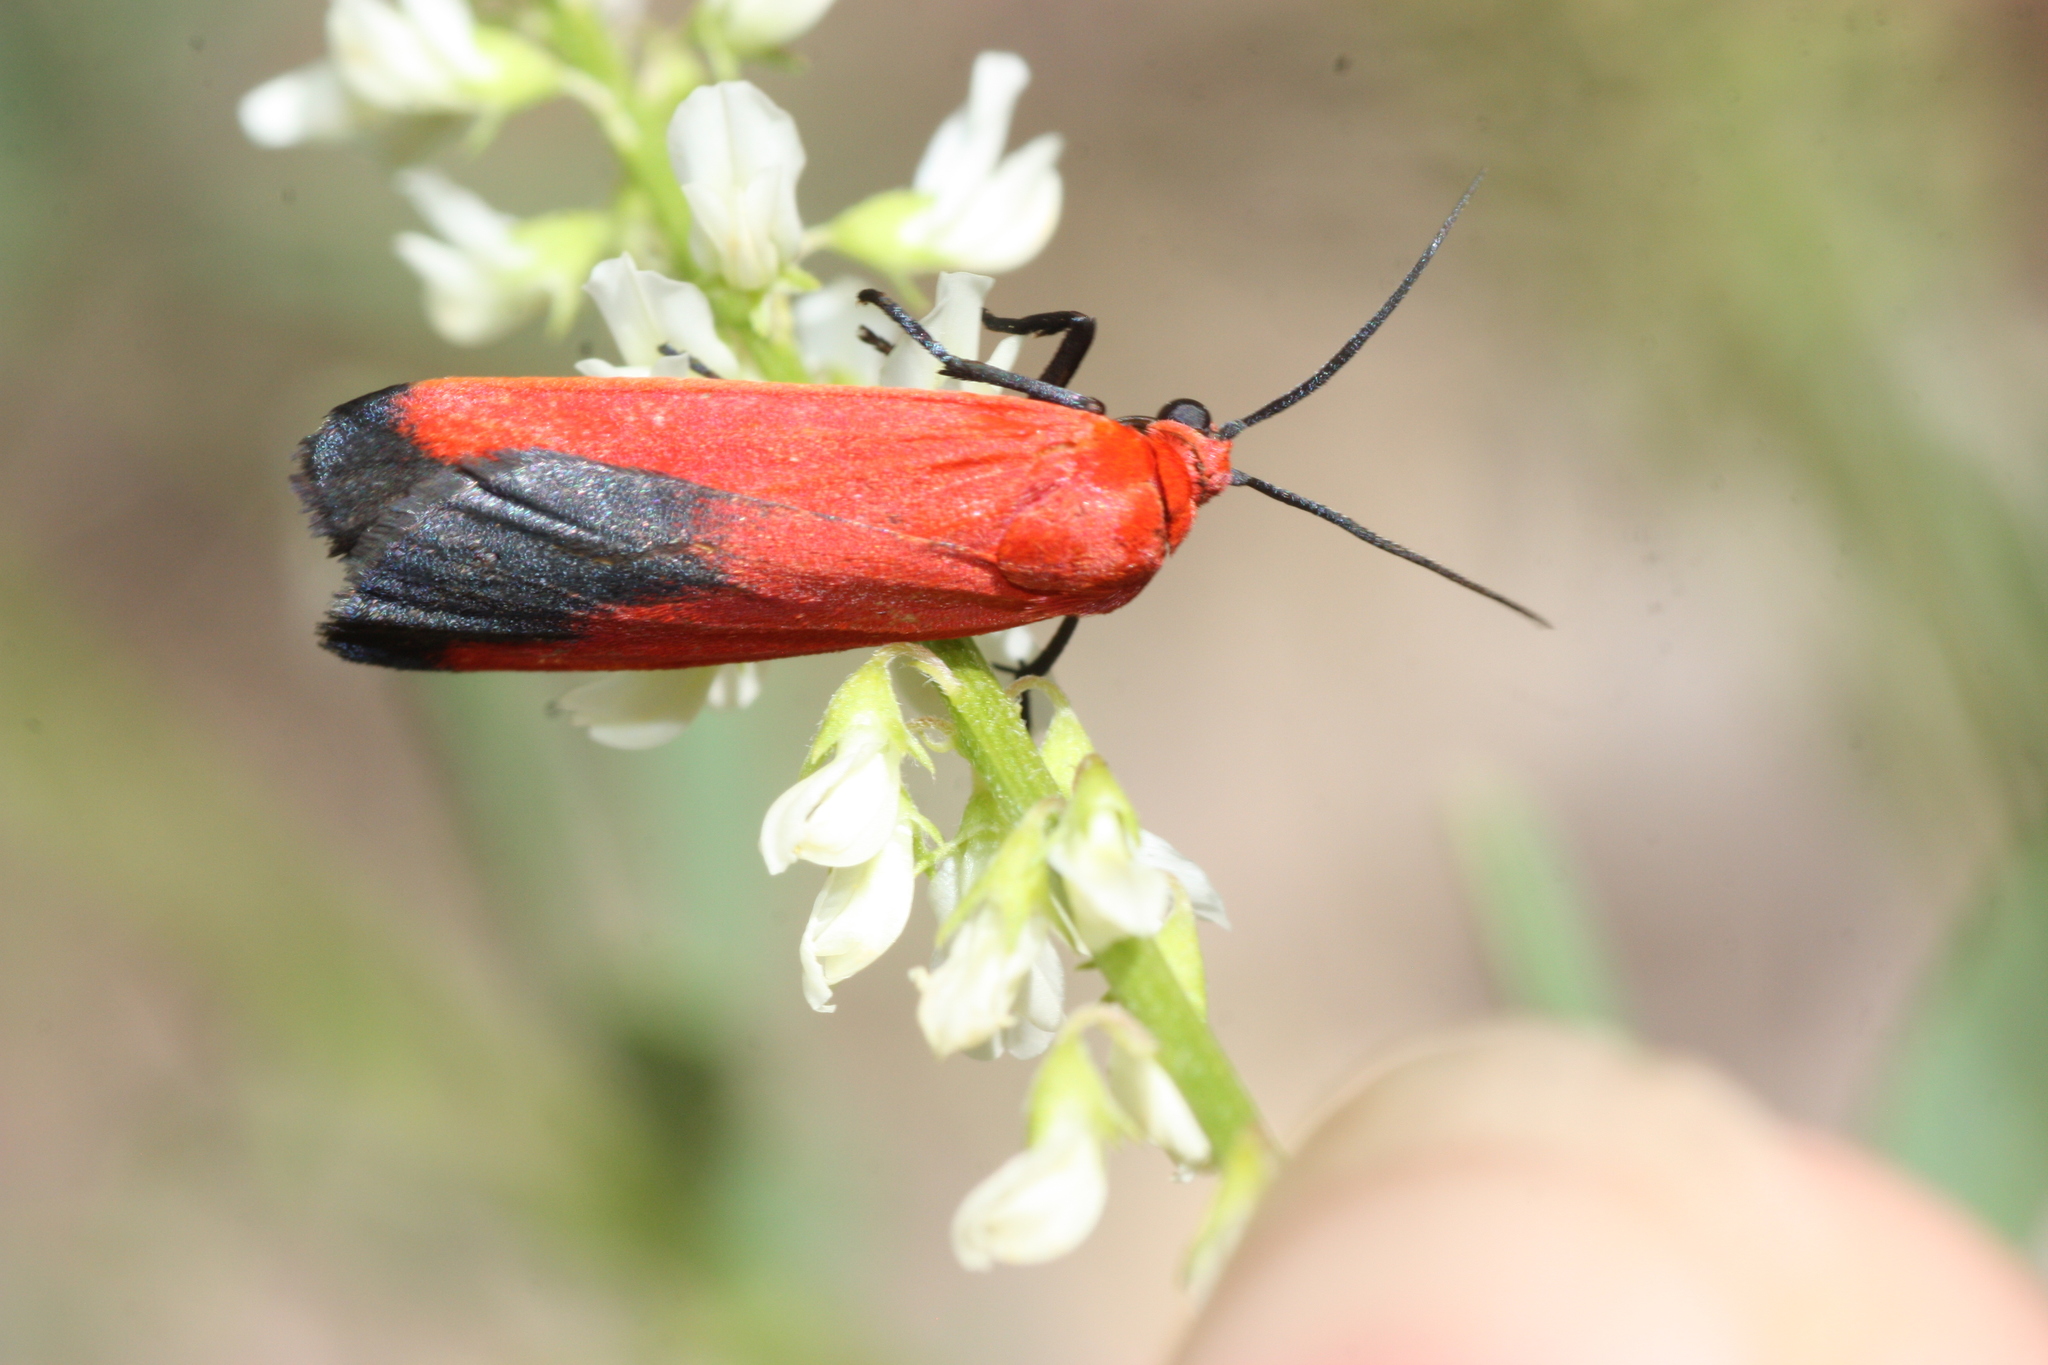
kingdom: Animalia
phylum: Arthropoda
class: Insecta
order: Lepidoptera
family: Erebidae
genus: Ptychoglene
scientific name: Ptychoglene coccinea
